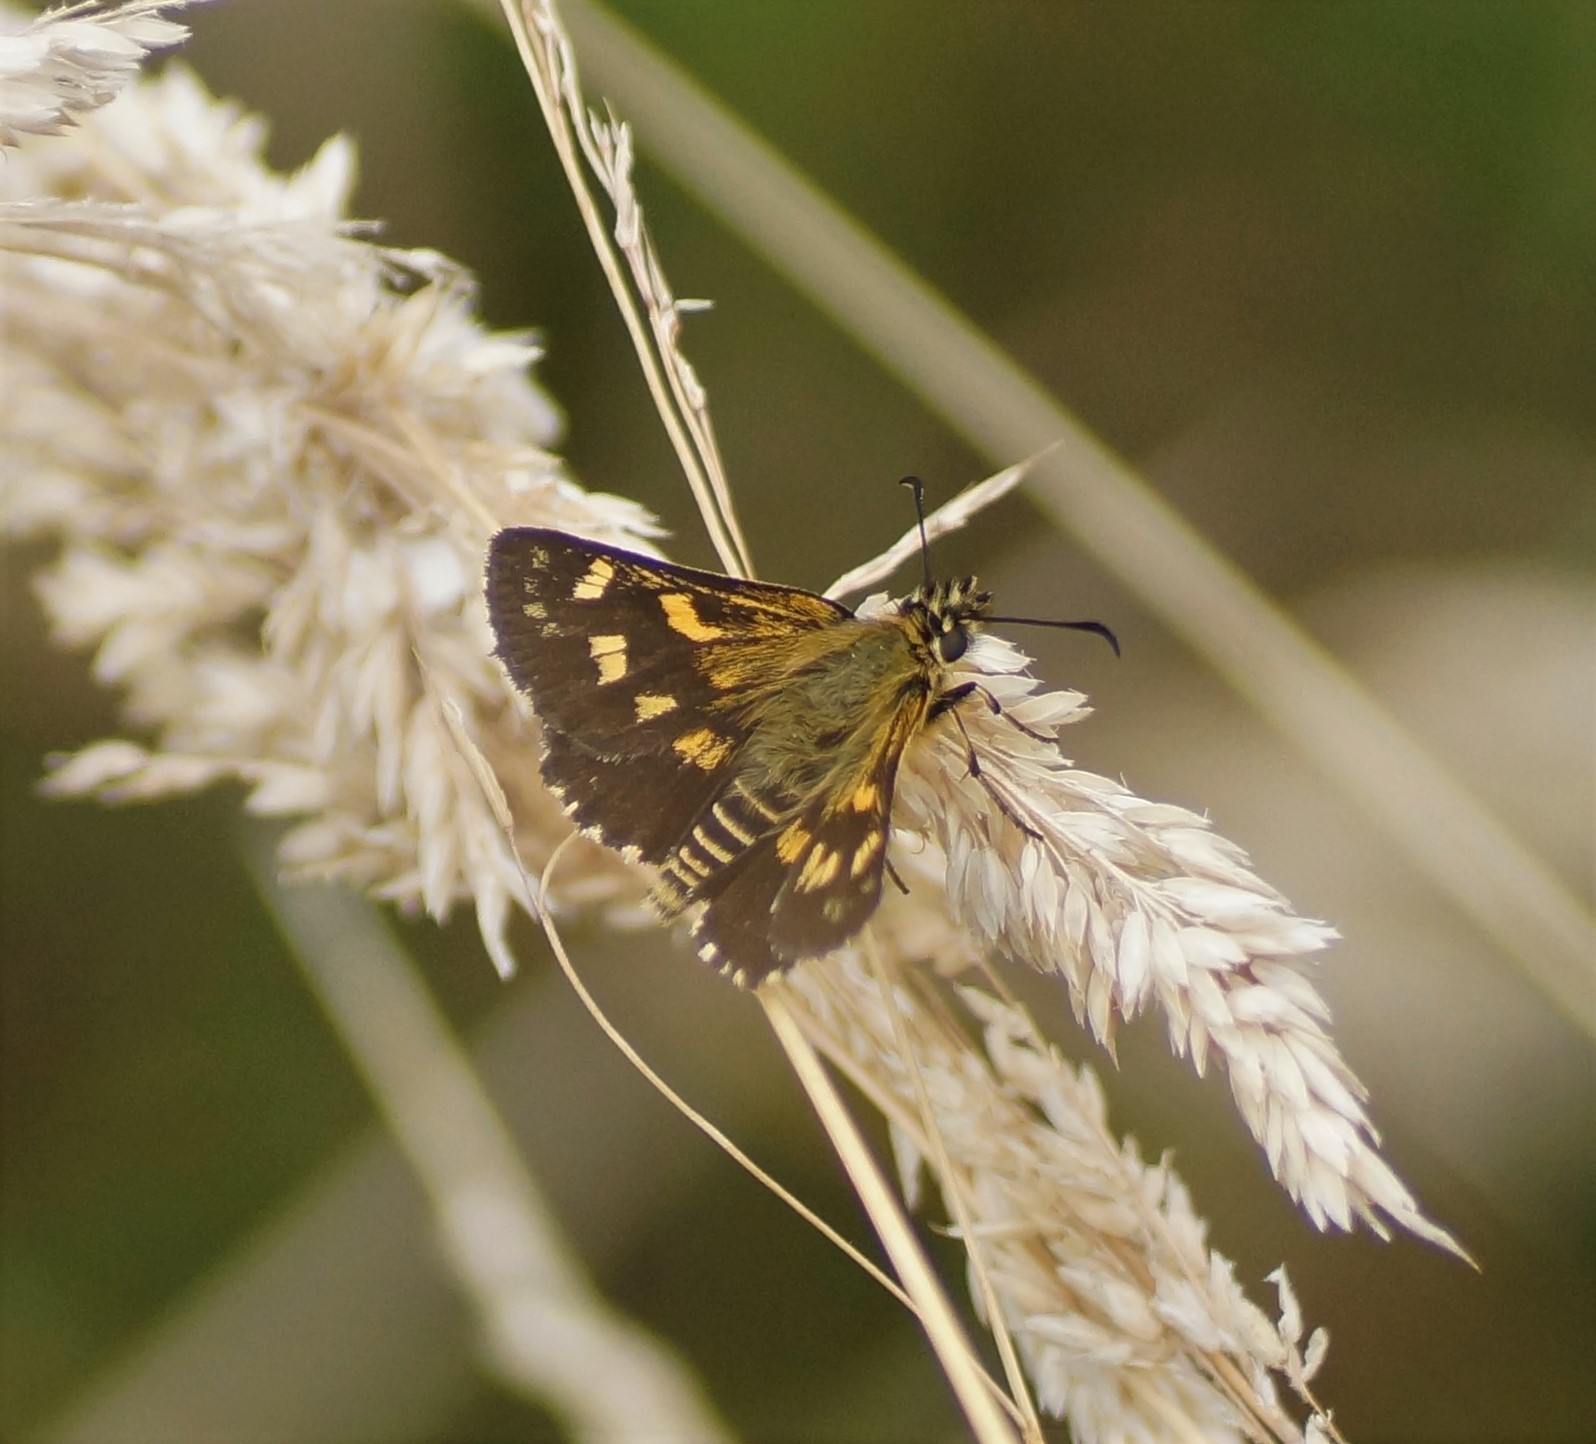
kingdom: Animalia
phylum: Arthropoda
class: Insecta
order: Lepidoptera
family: Hesperiidae
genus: Oreisplanus
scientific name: Oreisplanus munionga
